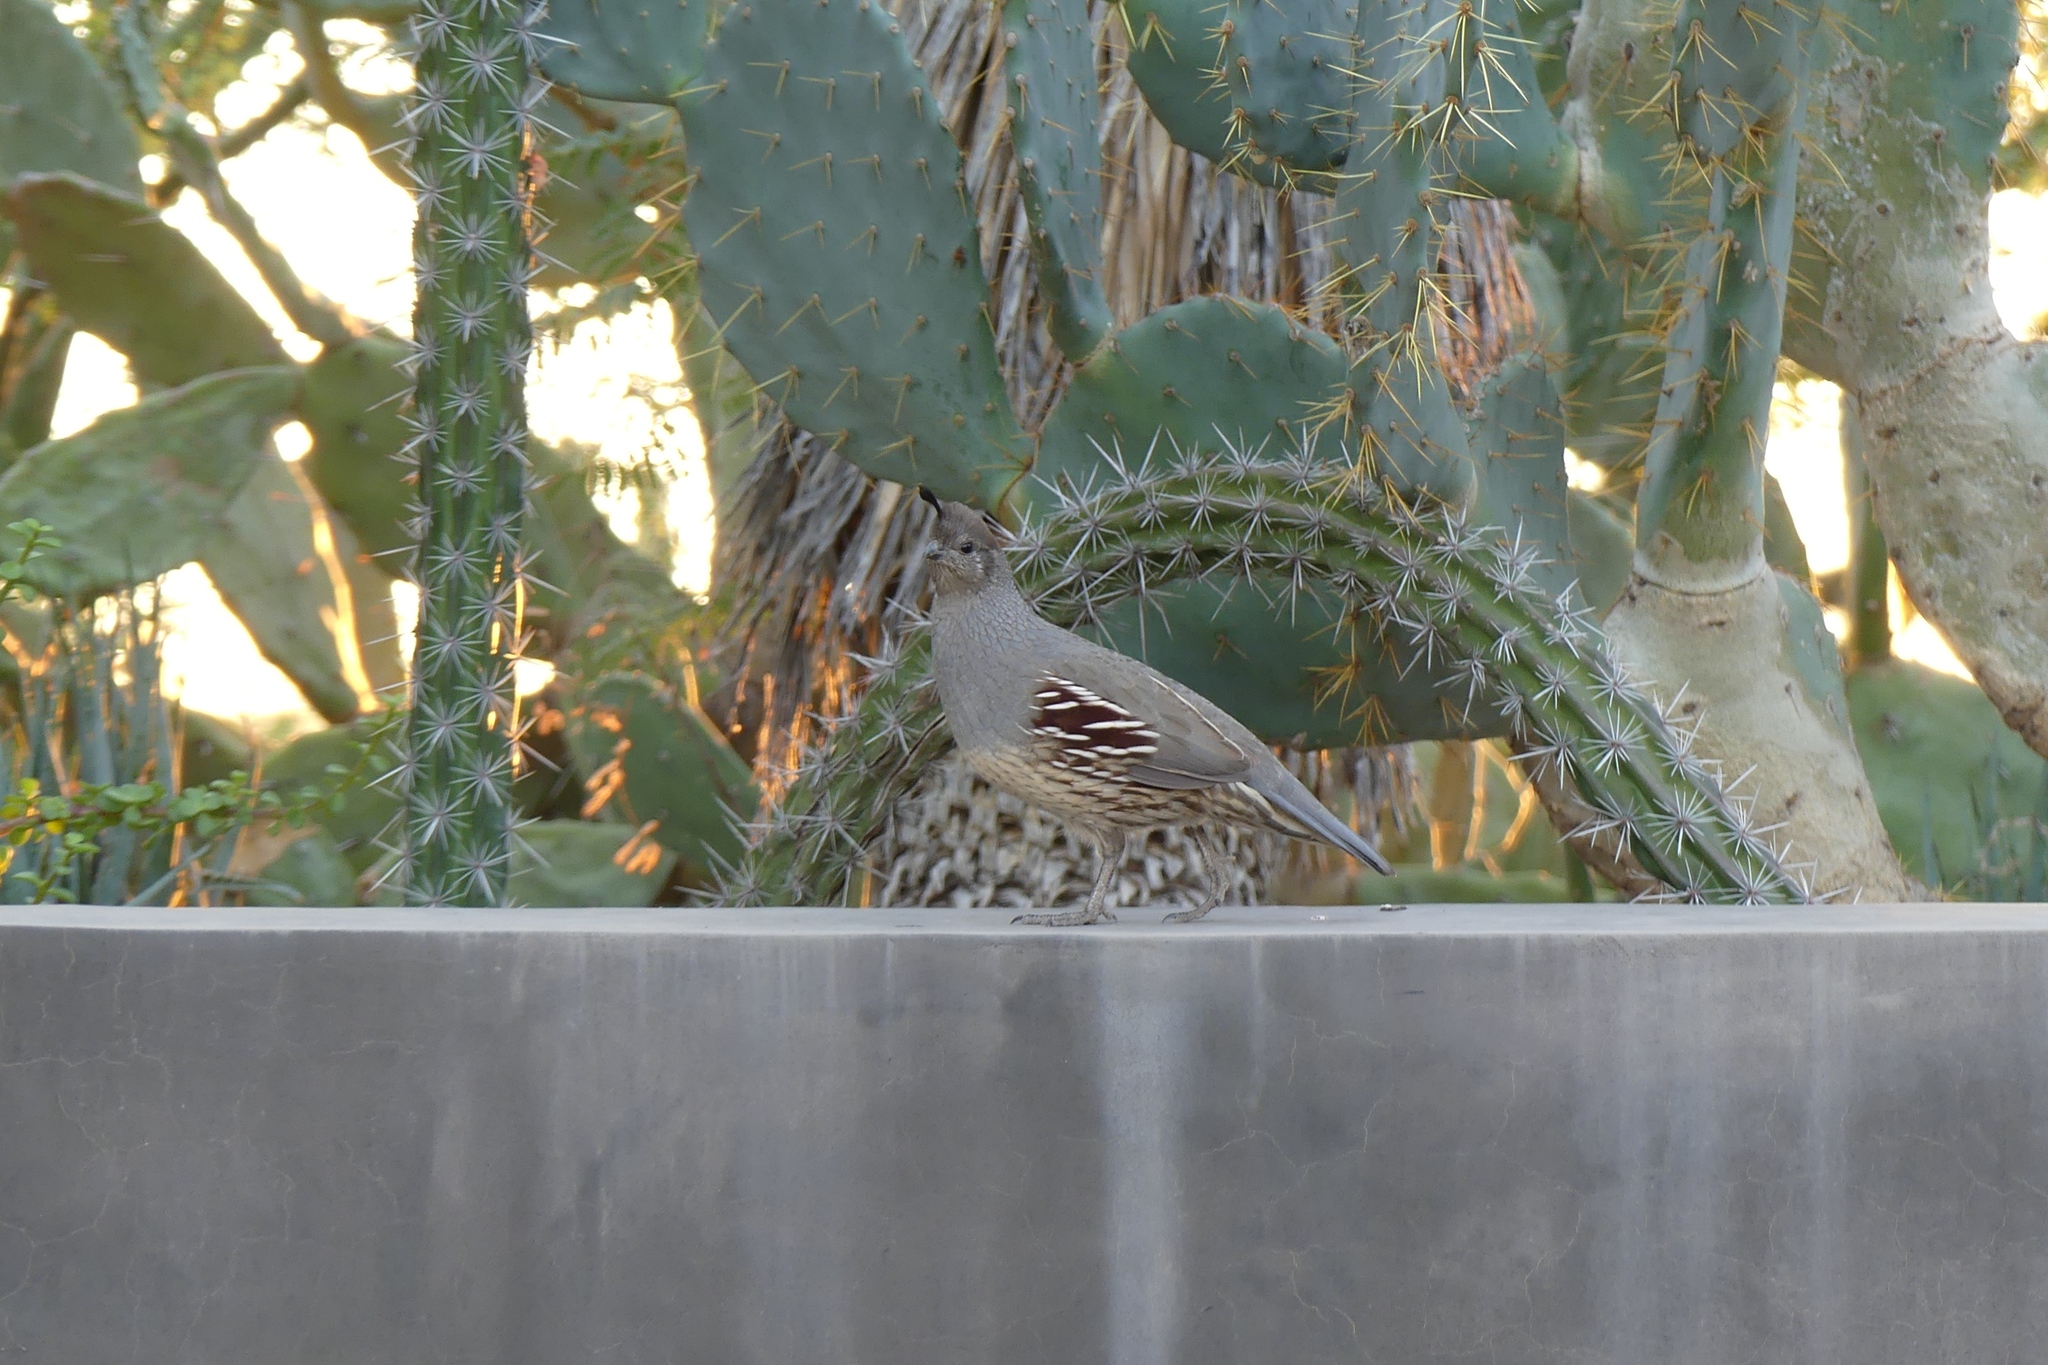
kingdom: Animalia
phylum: Chordata
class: Aves
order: Galliformes
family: Odontophoridae
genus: Callipepla
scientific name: Callipepla gambelii
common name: Gambel's quail
